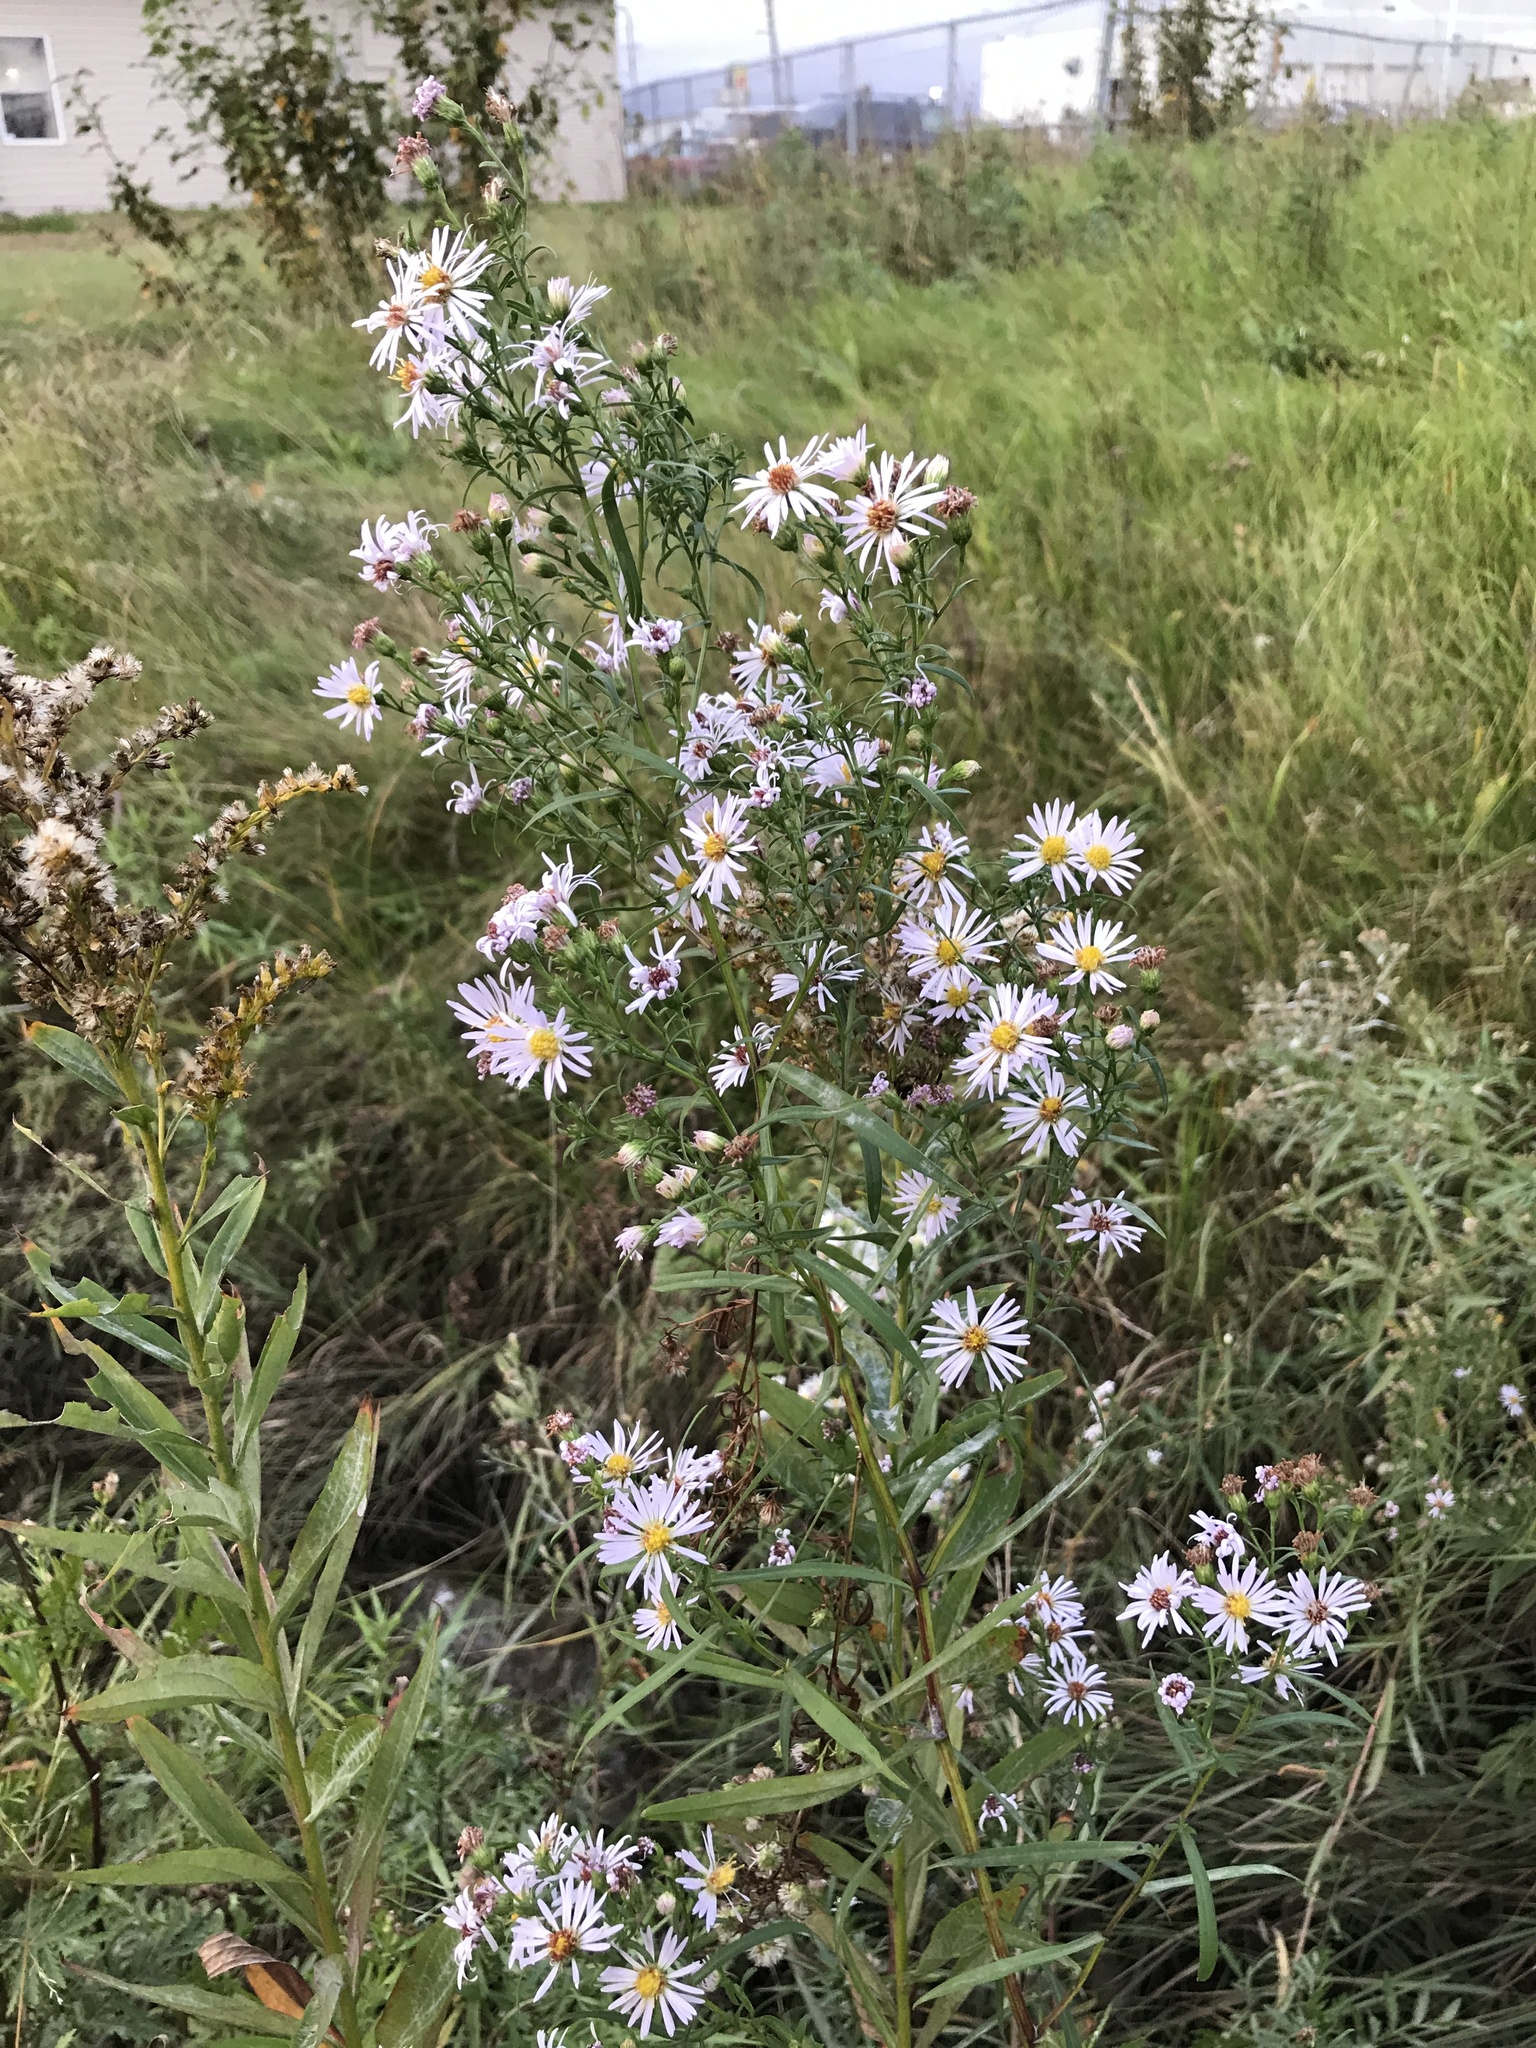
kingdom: Plantae
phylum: Tracheophyta
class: Magnoliopsida
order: Asterales
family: Asteraceae
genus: Symphyotrichum
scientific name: Symphyotrichum lanceolatum
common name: Panicled aster
